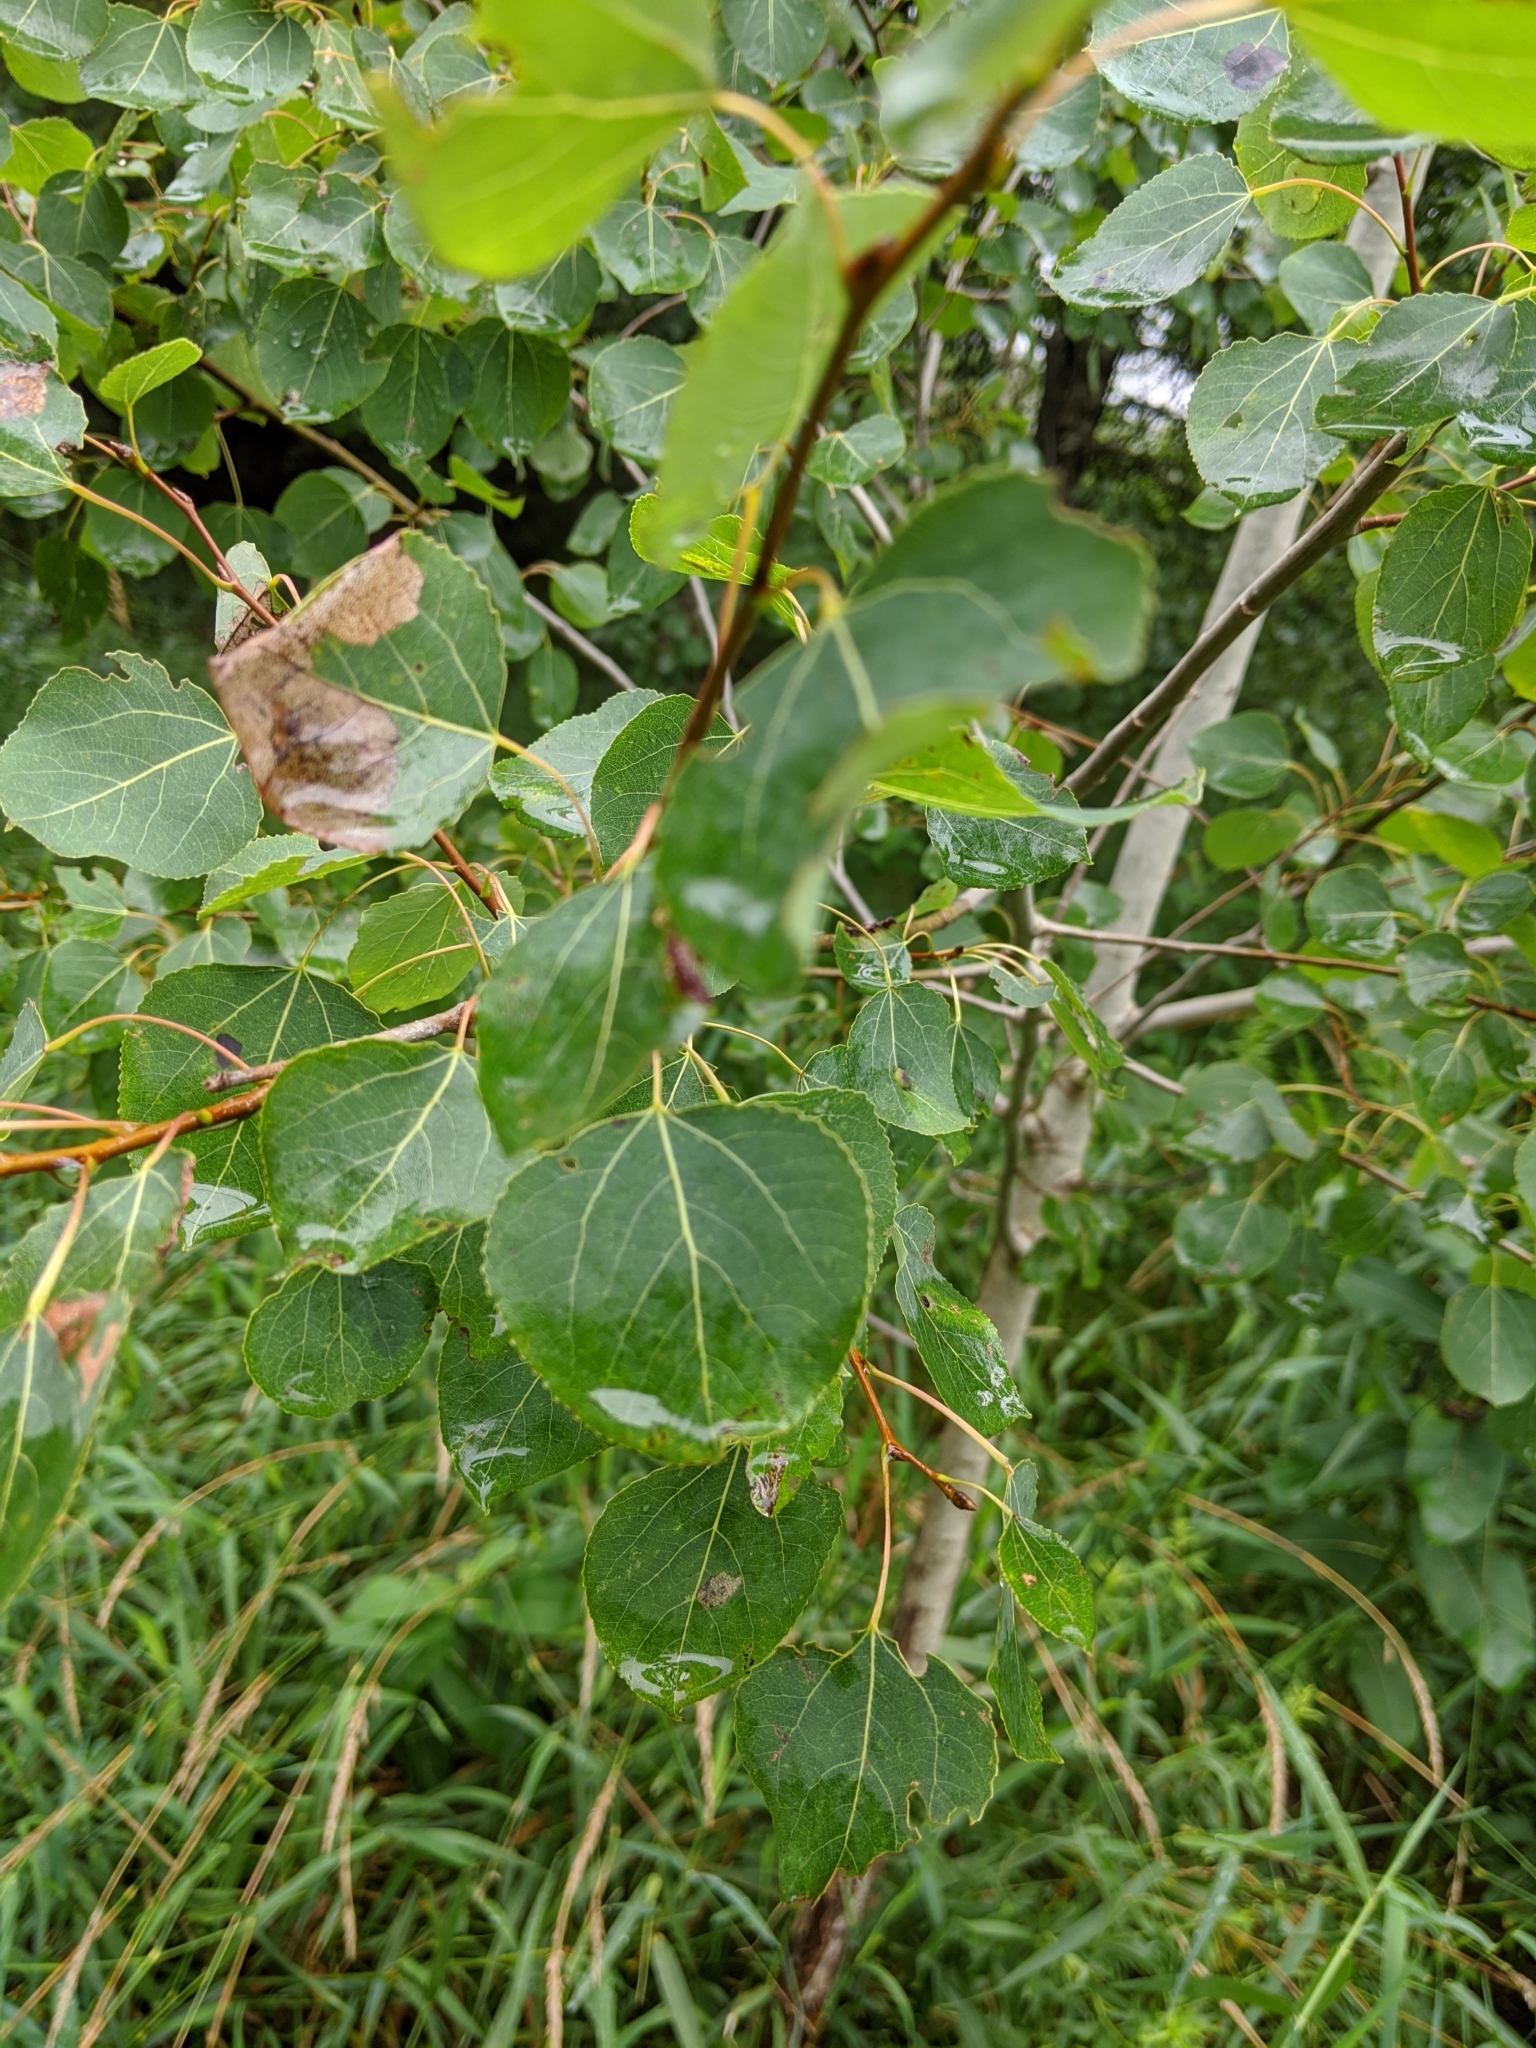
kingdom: Plantae
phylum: Tracheophyta
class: Magnoliopsida
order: Malpighiales
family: Salicaceae
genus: Populus
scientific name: Populus tremuloides
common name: Quaking aspen
